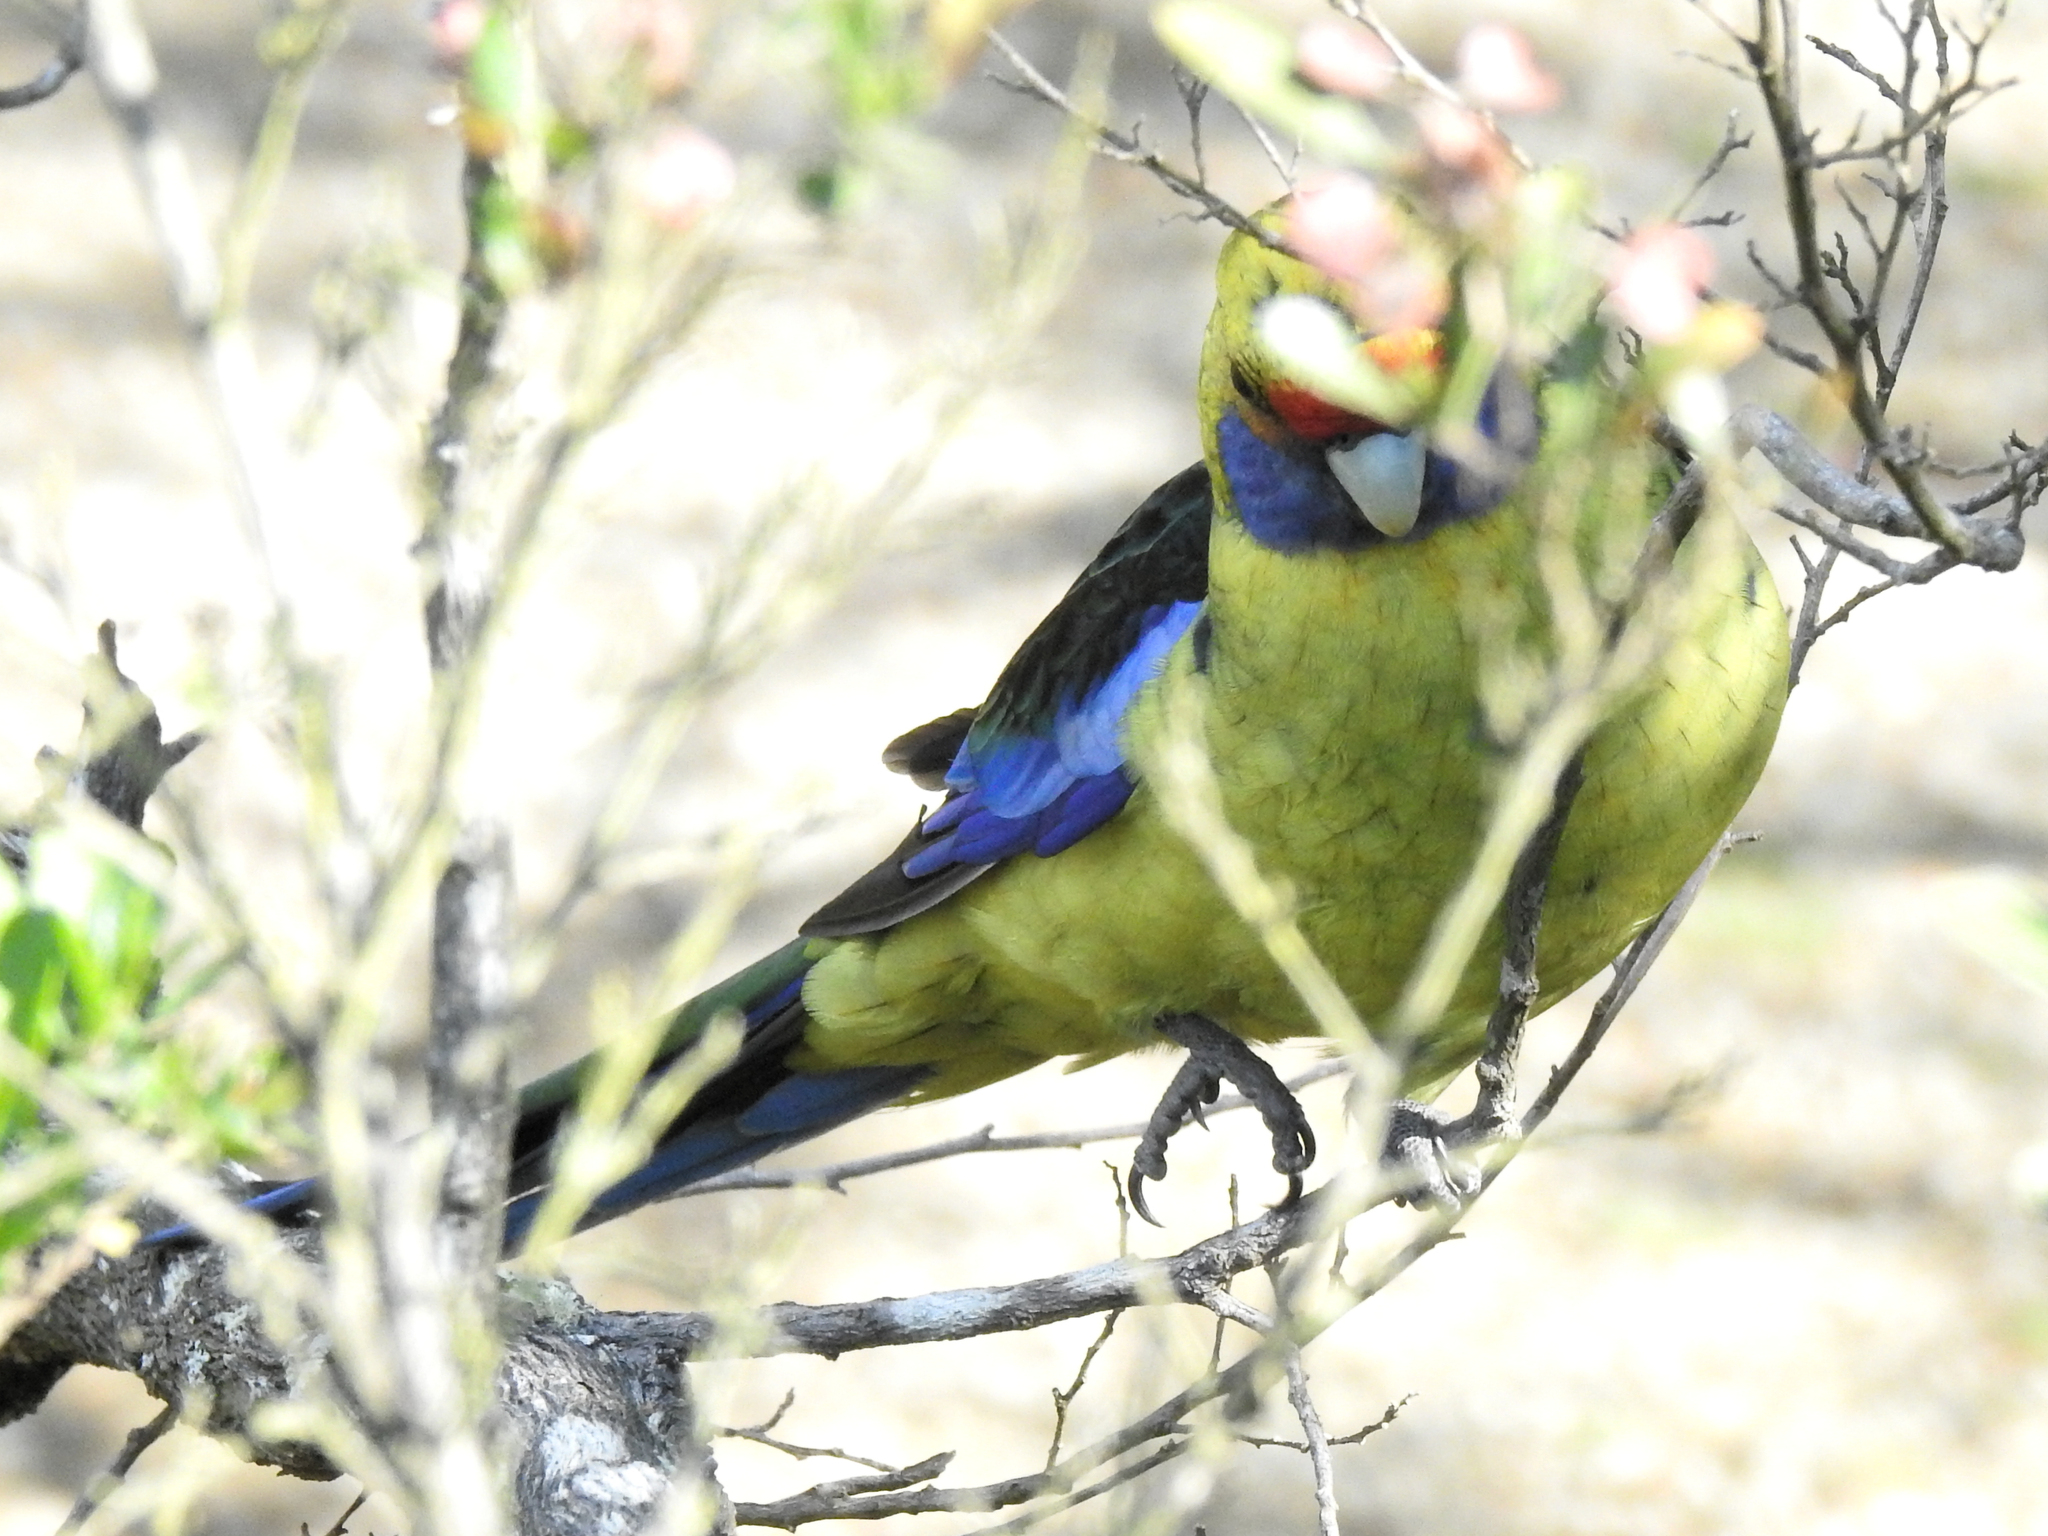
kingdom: Animalia
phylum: Chordata
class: Aves
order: Psittaciformes
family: Psittacidae
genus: Platycercus
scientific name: Platycercus caledonicus
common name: Green rosella
